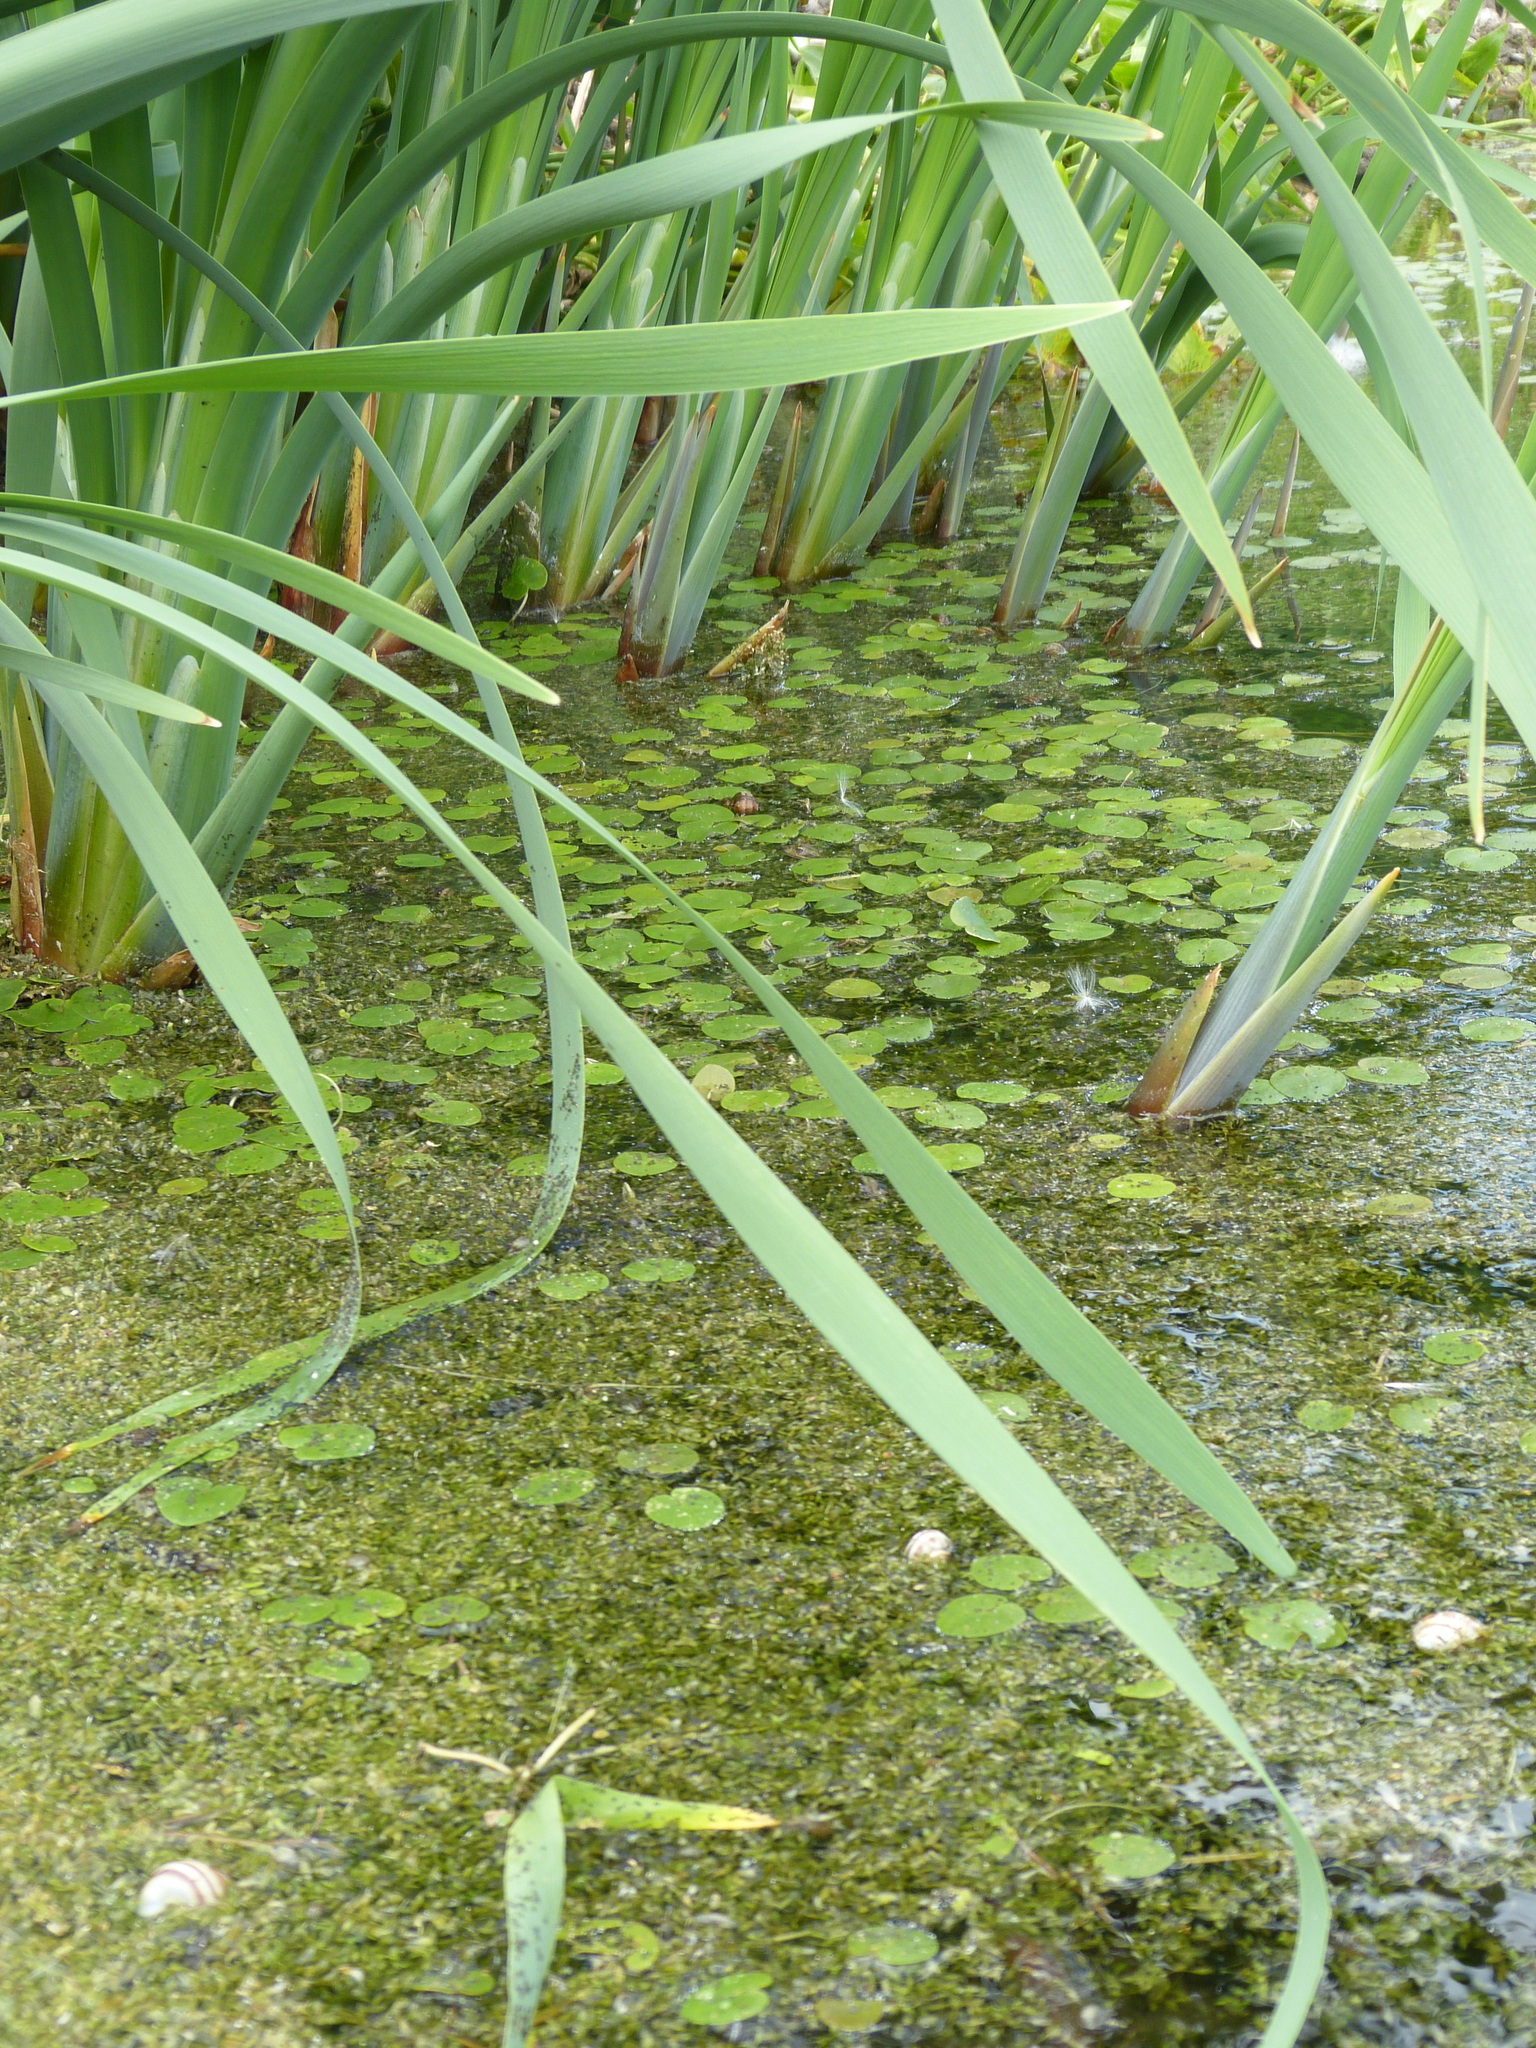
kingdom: Plantae
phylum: Tracheophyta
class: Liliopsida
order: Alismatales
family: Hydrocharitaceae
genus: Hydrocharis
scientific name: Hydrocharis morsus-ranae
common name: Frogbit
